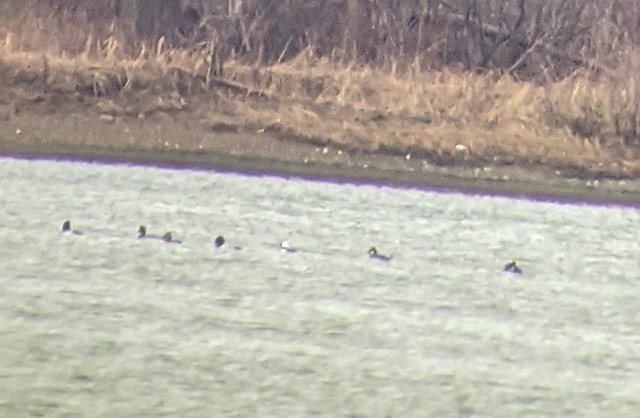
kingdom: Animalia
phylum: Chordata
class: Aves
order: Anseriformes
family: Anatidae
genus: Bucephala
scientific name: Bucephala albeola
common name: Bufflehead
